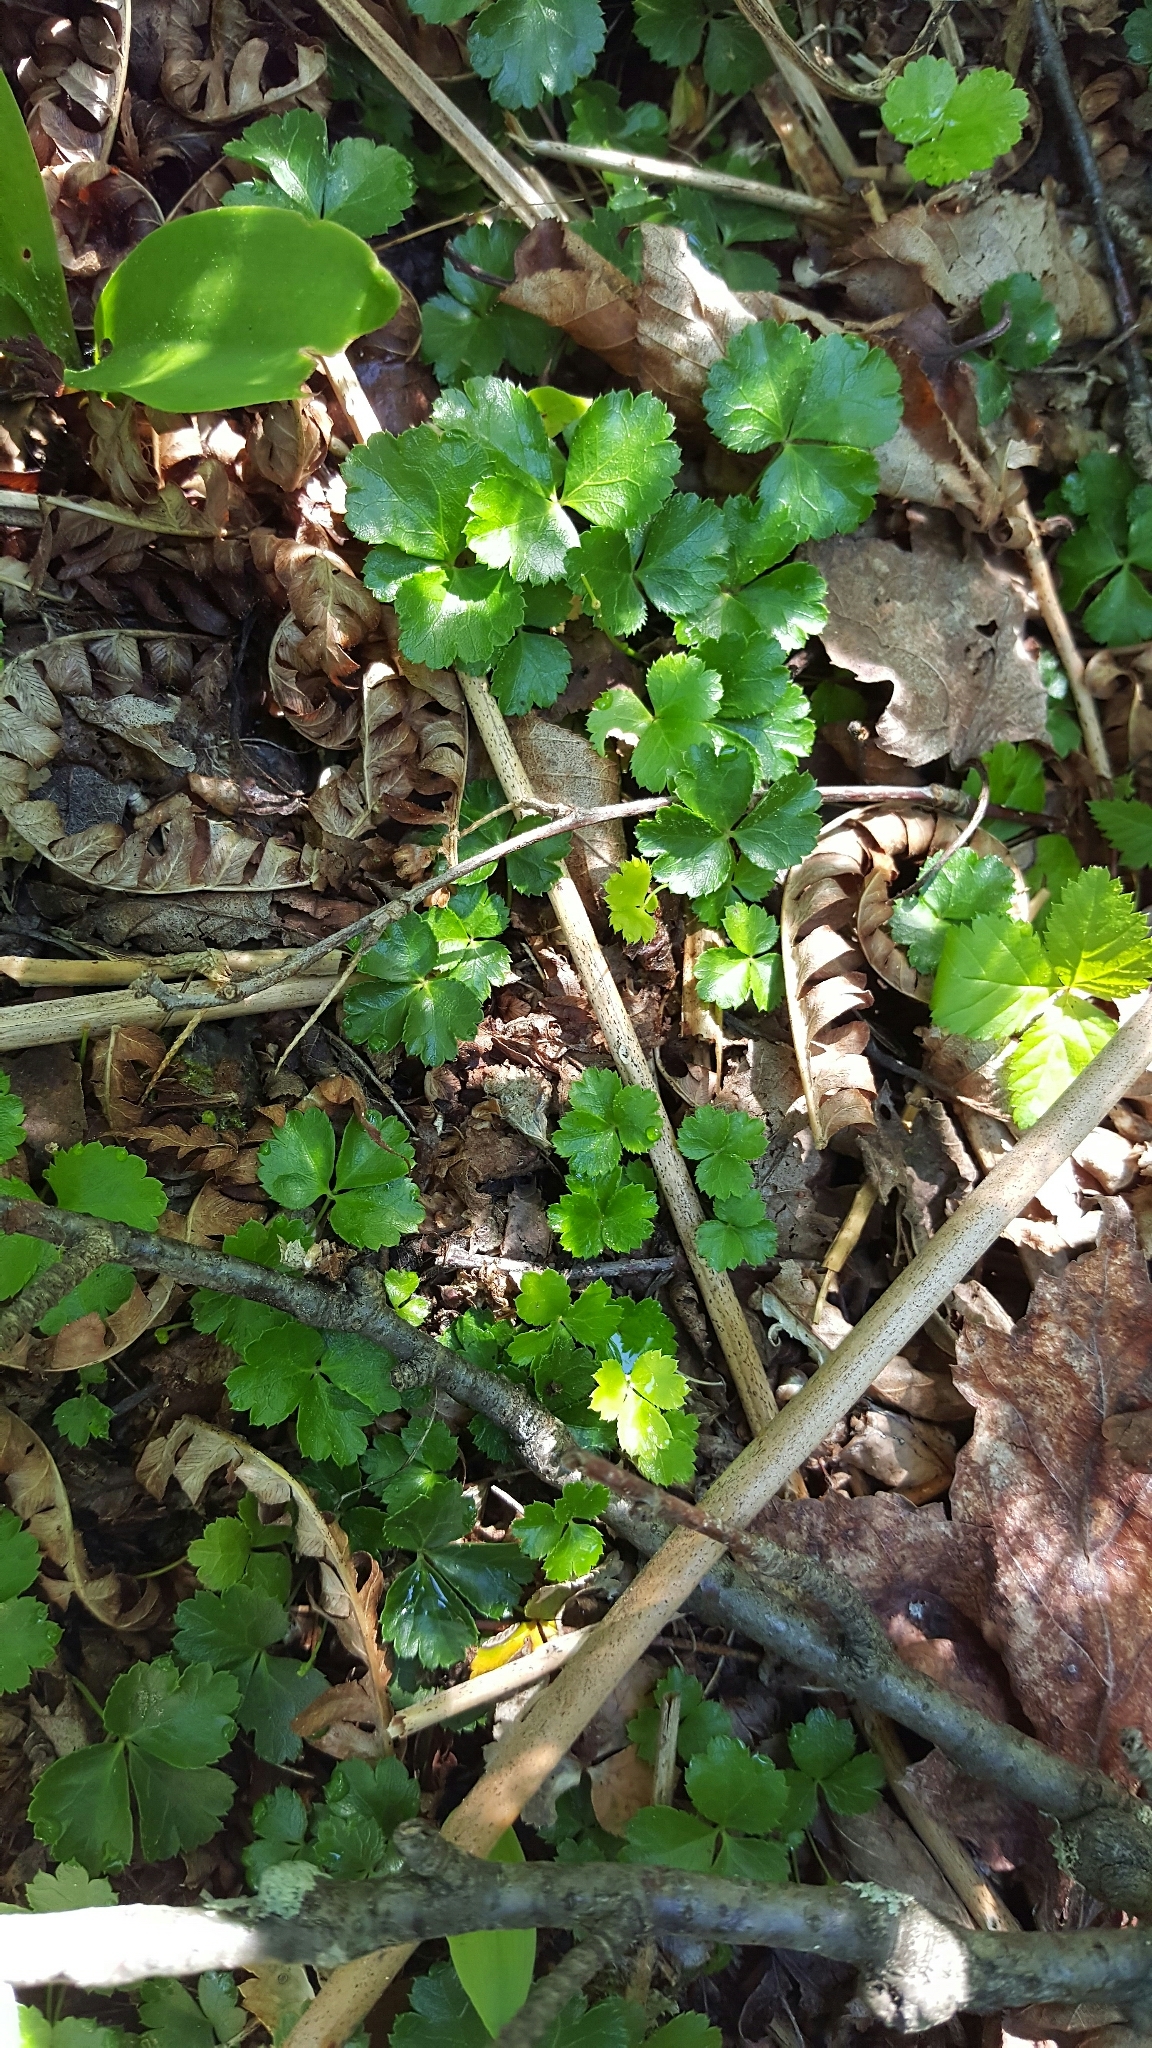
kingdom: Plantae
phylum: Tracheophyta
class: Magnoliopsida
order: Ranunculales
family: Ranunculaceae
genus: Coptis
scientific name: Coptis trifolia
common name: Canker-root
